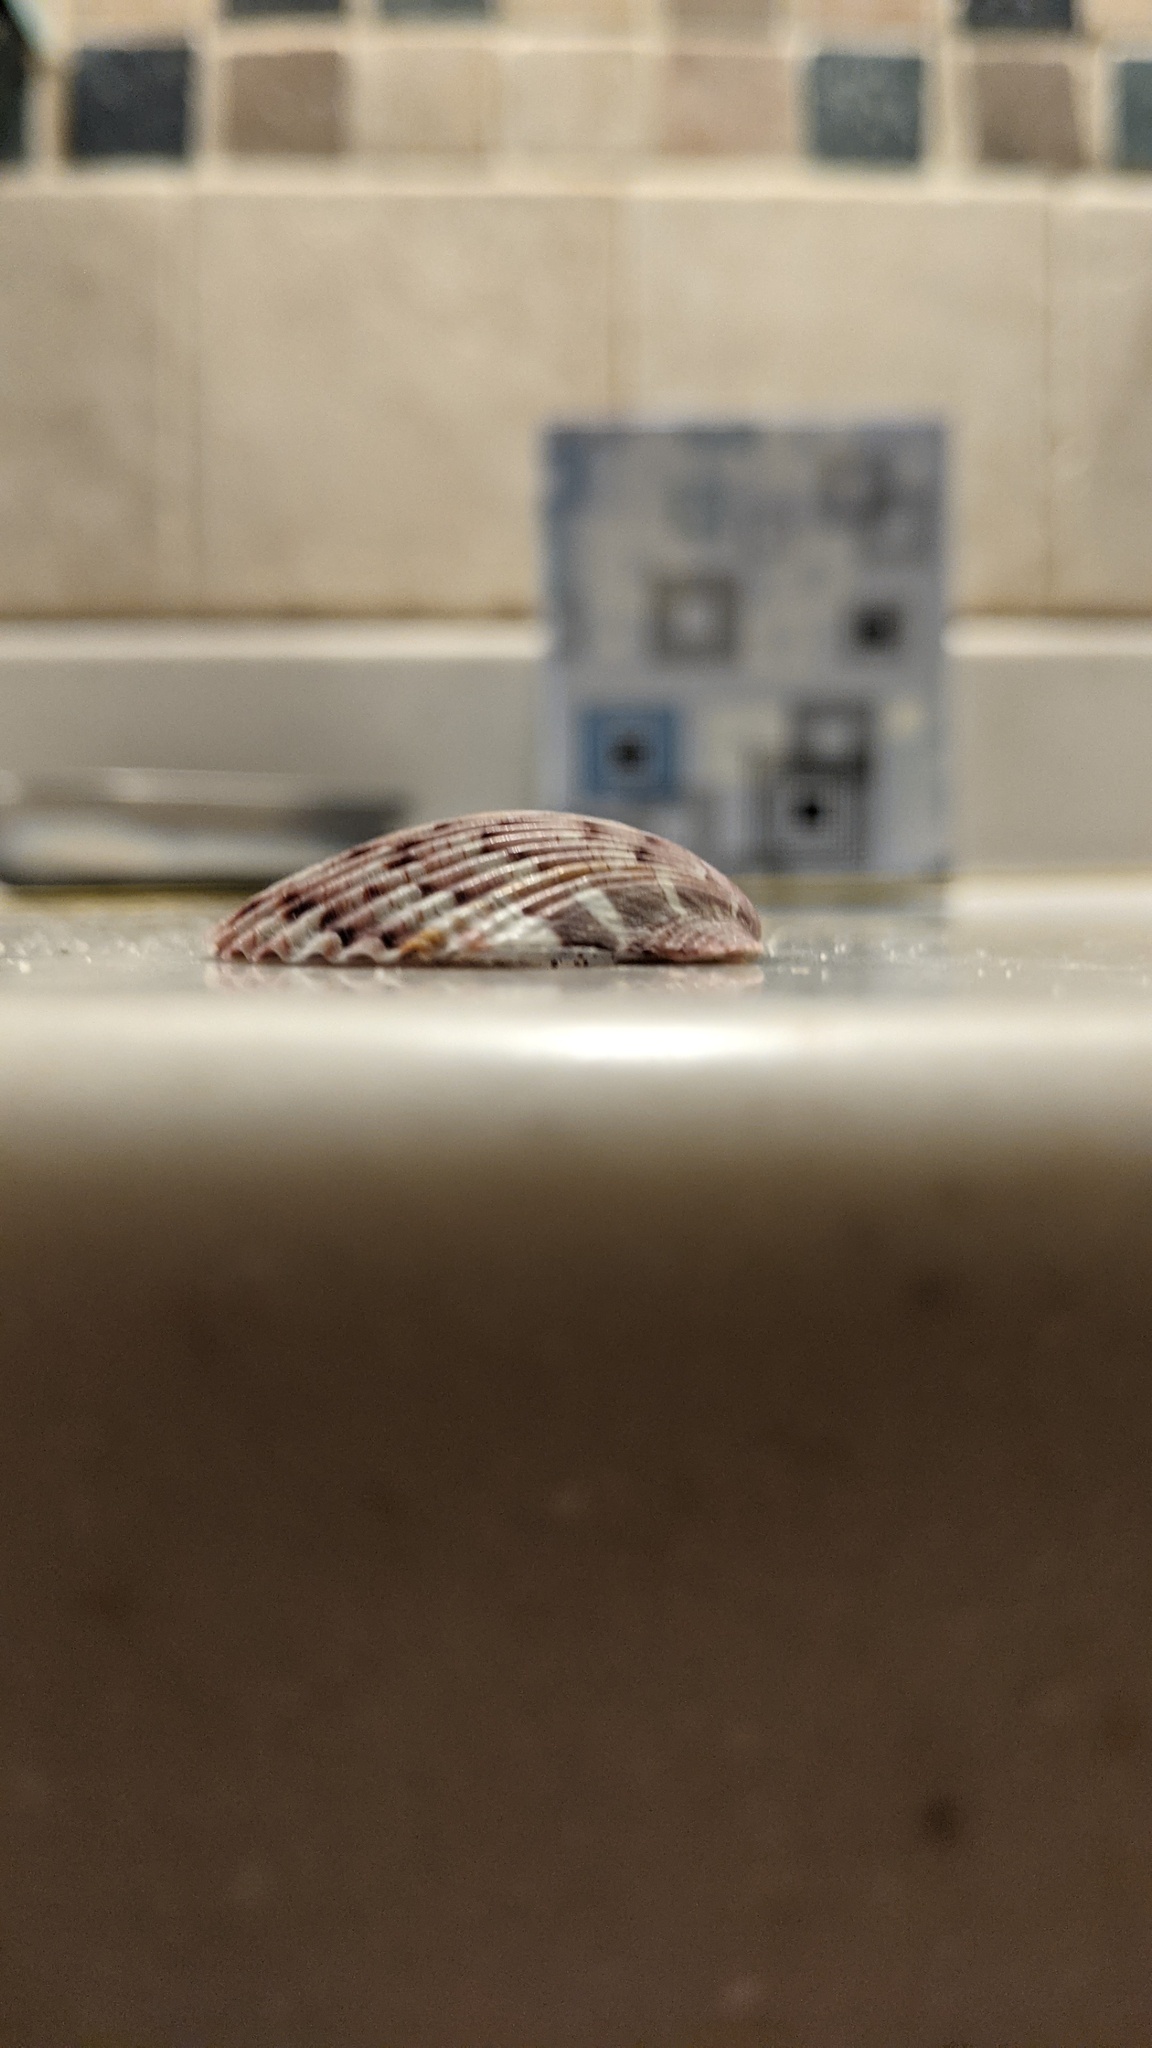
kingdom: Animalia
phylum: Mollusca
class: Bivalvia
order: Pectinida
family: Pectinidae
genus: Argopecten
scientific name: Argopecten gibbus
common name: Atlantic calico scallop
